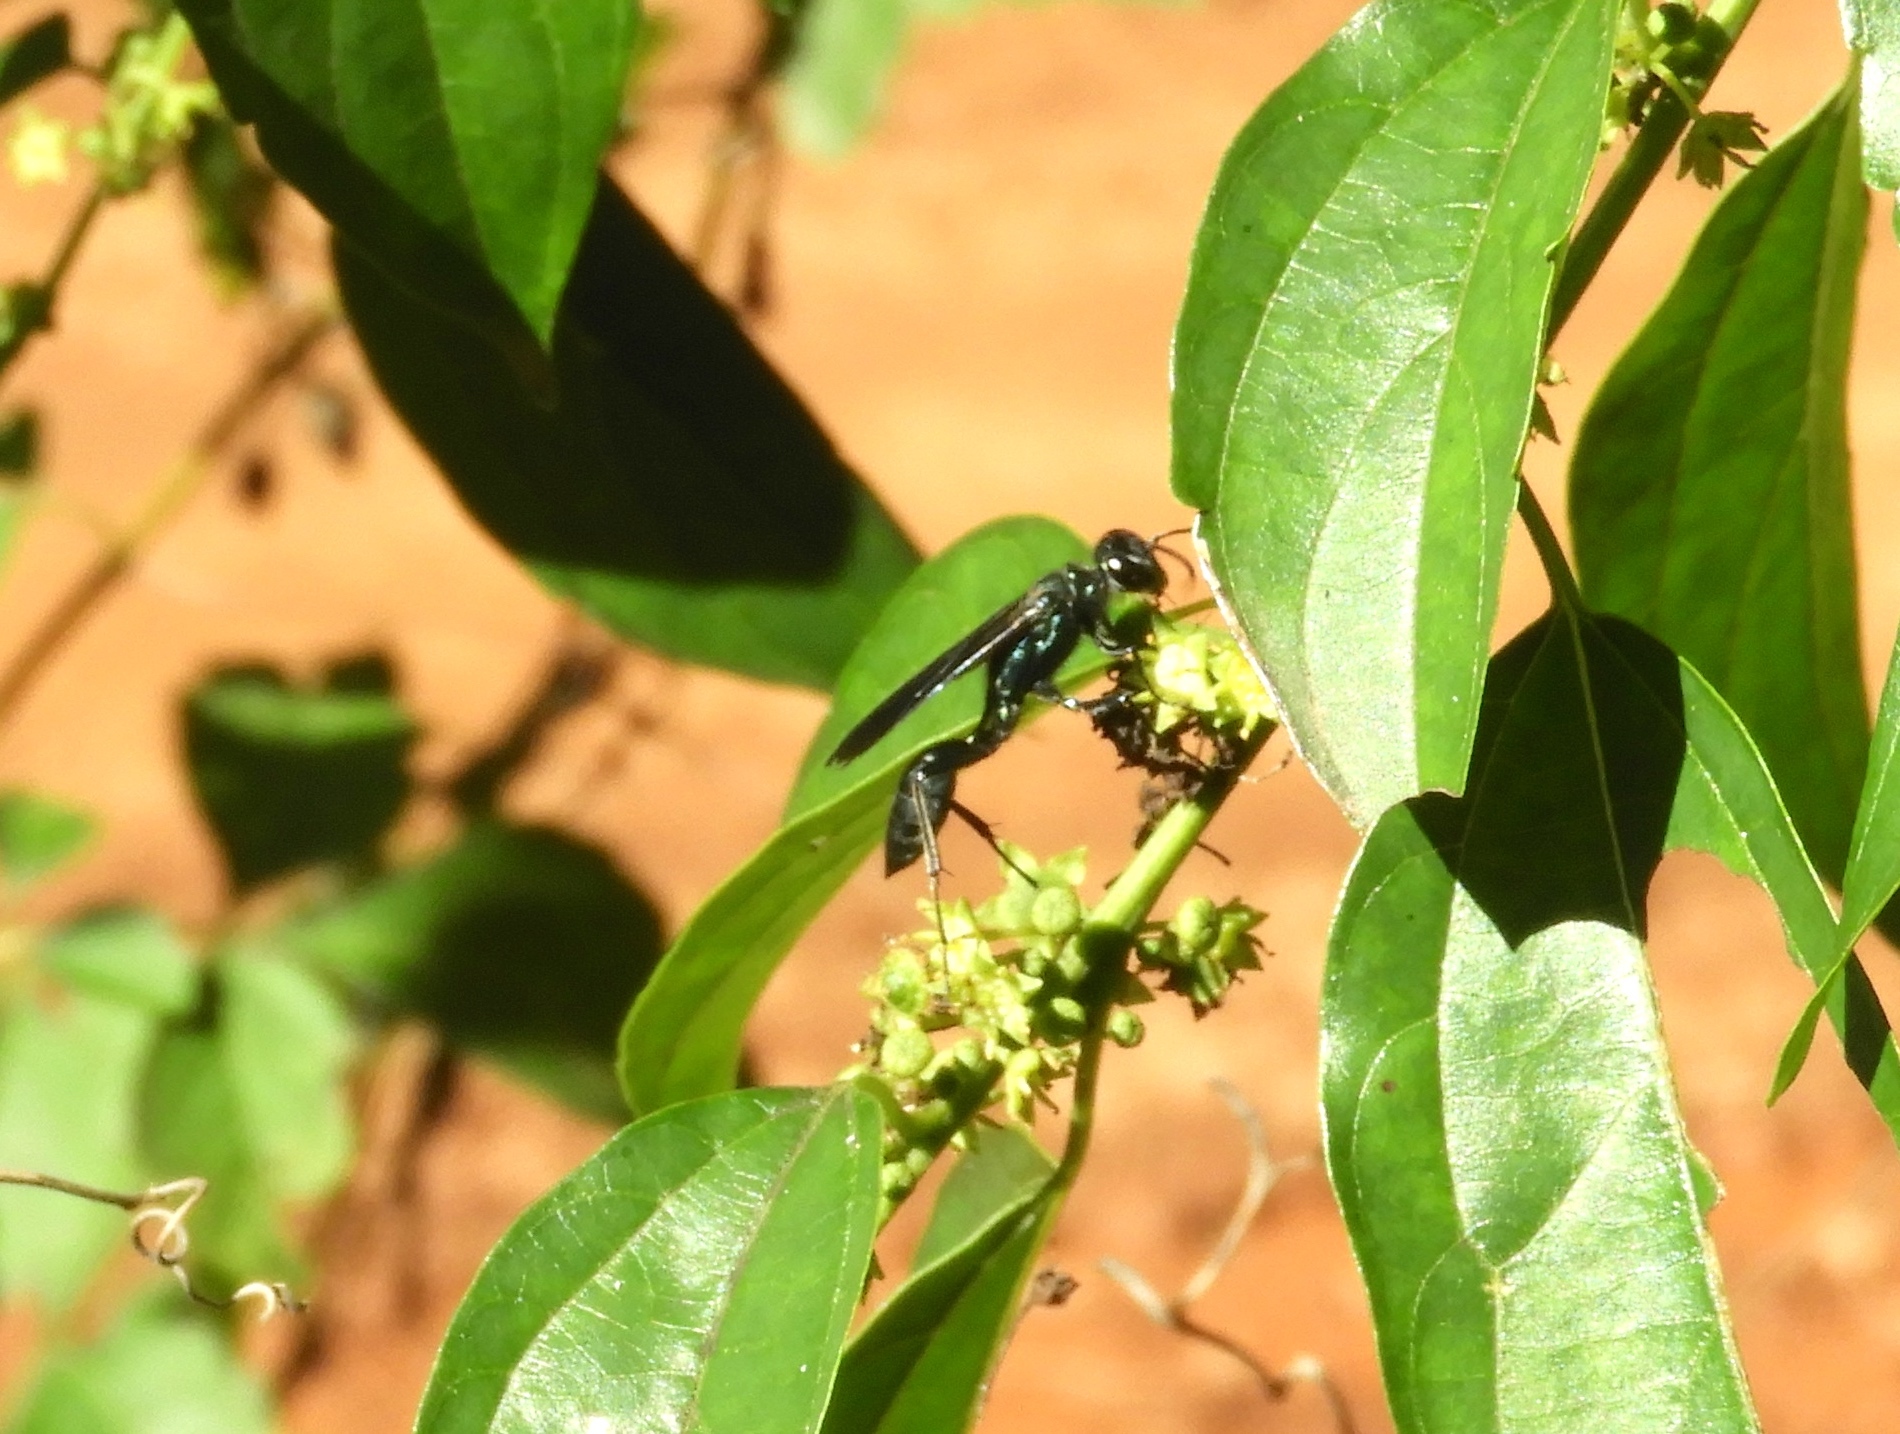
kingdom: Animalia
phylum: Arthropoda
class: Insecta
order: Hymenoptera
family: Sphecidae
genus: Chalybion
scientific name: Chalybion californicum
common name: Mud dauber
